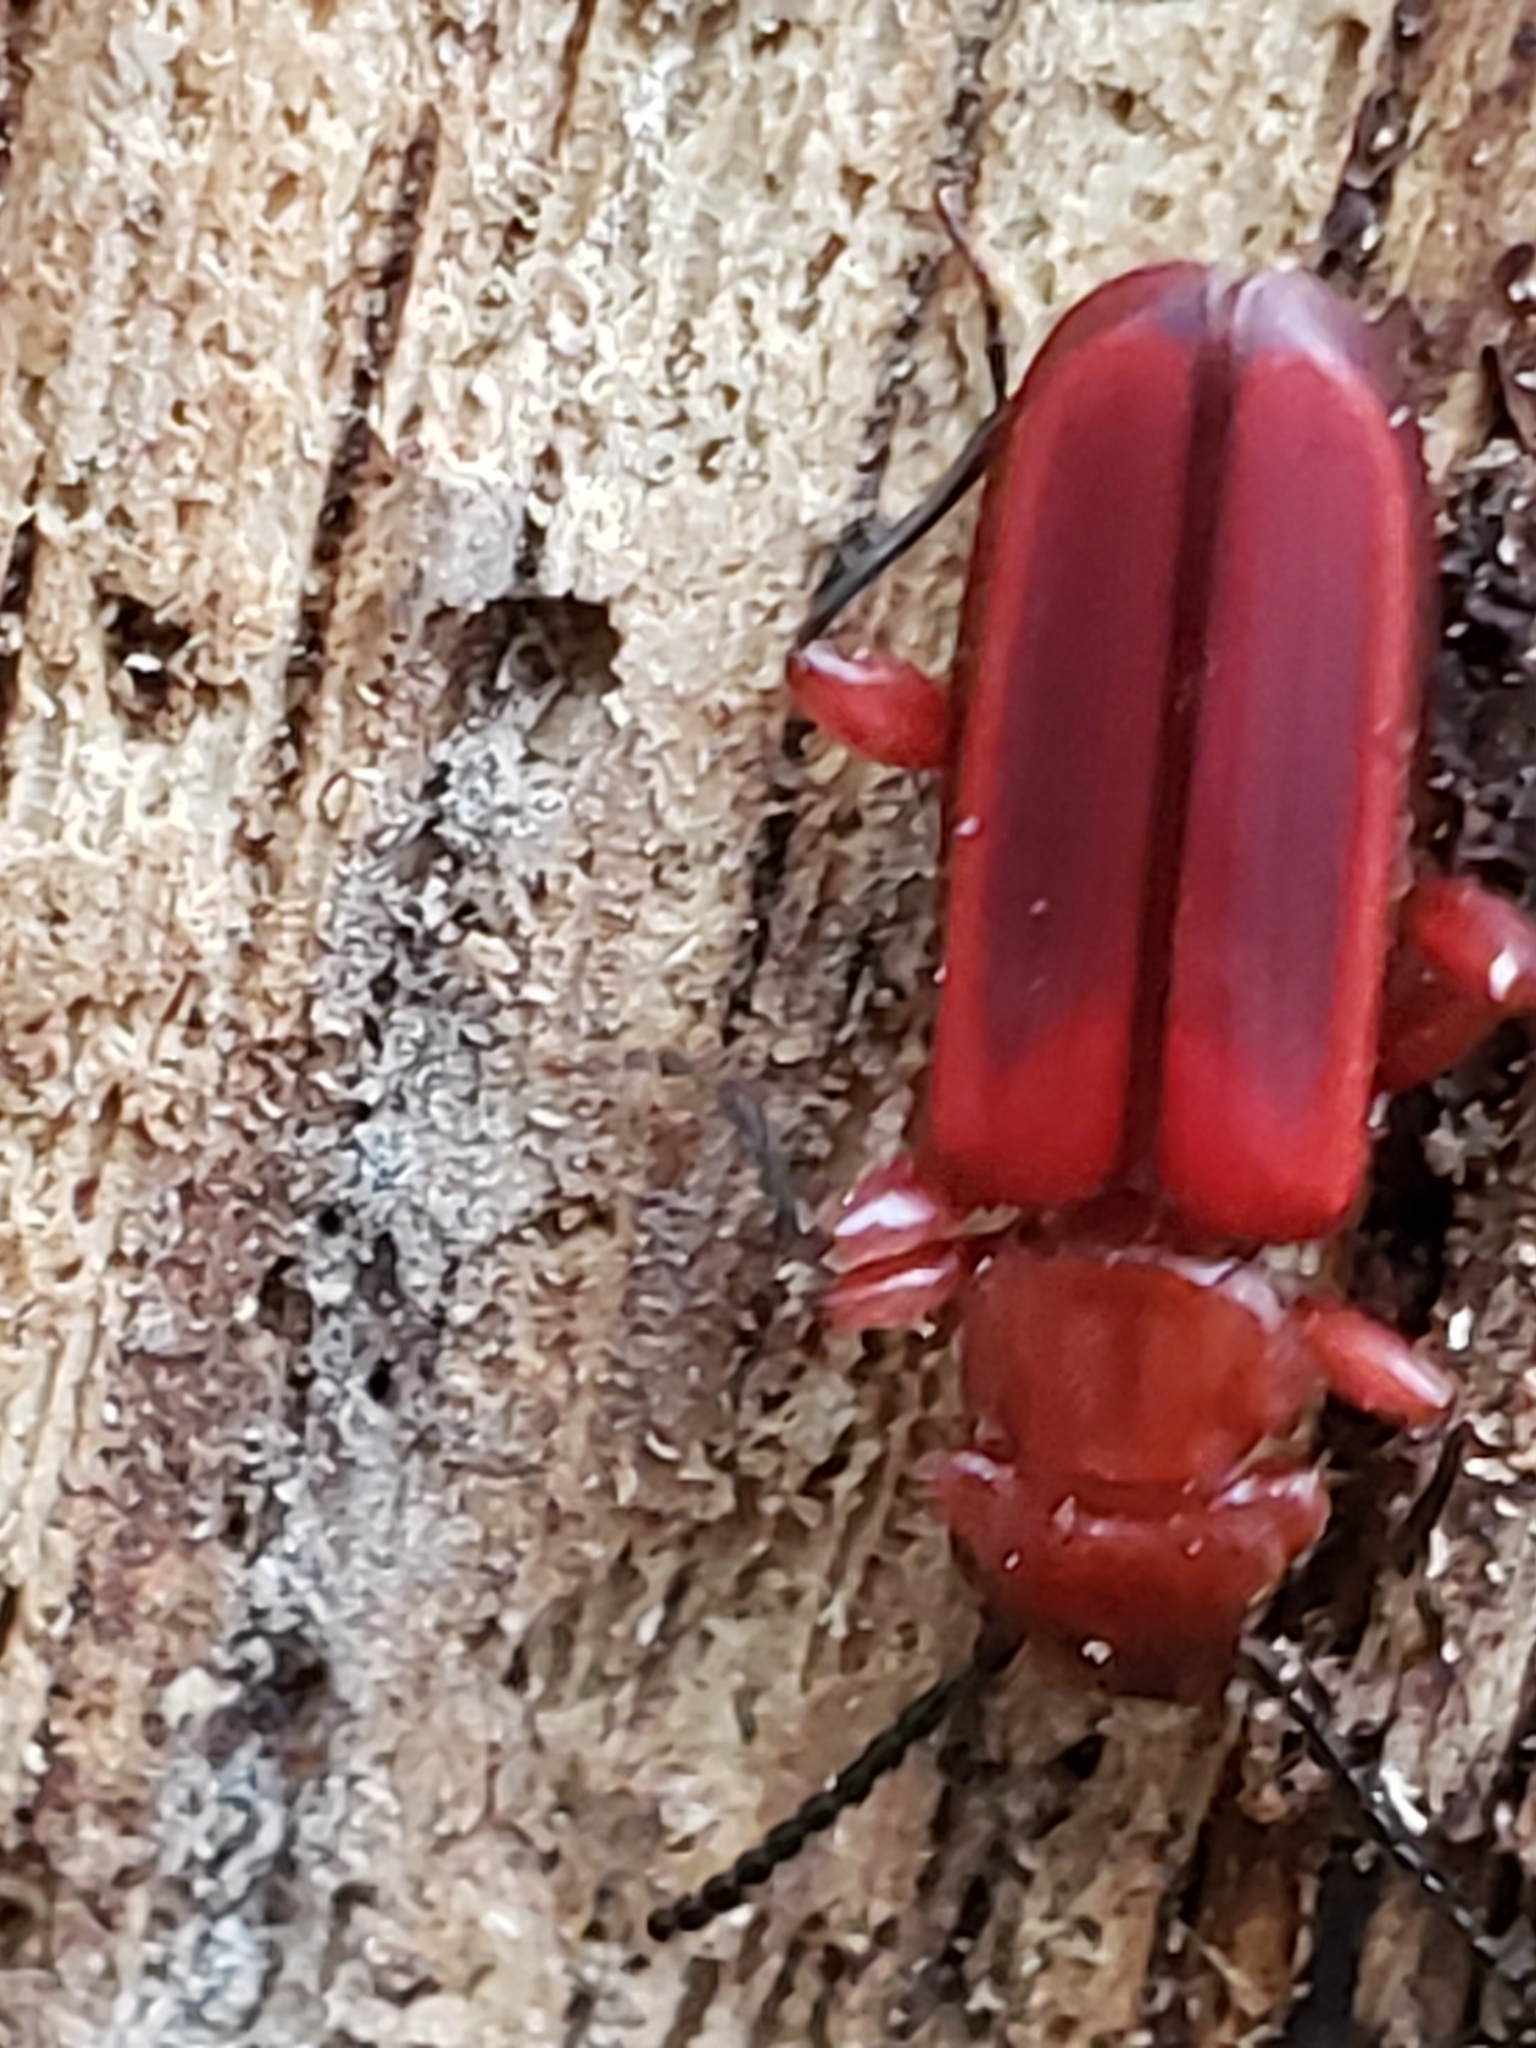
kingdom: Animalia
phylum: Arthropoda
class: Insecta
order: Coleoptera
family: Cucujidae
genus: Cucujus
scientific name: Cucujus clavipes
